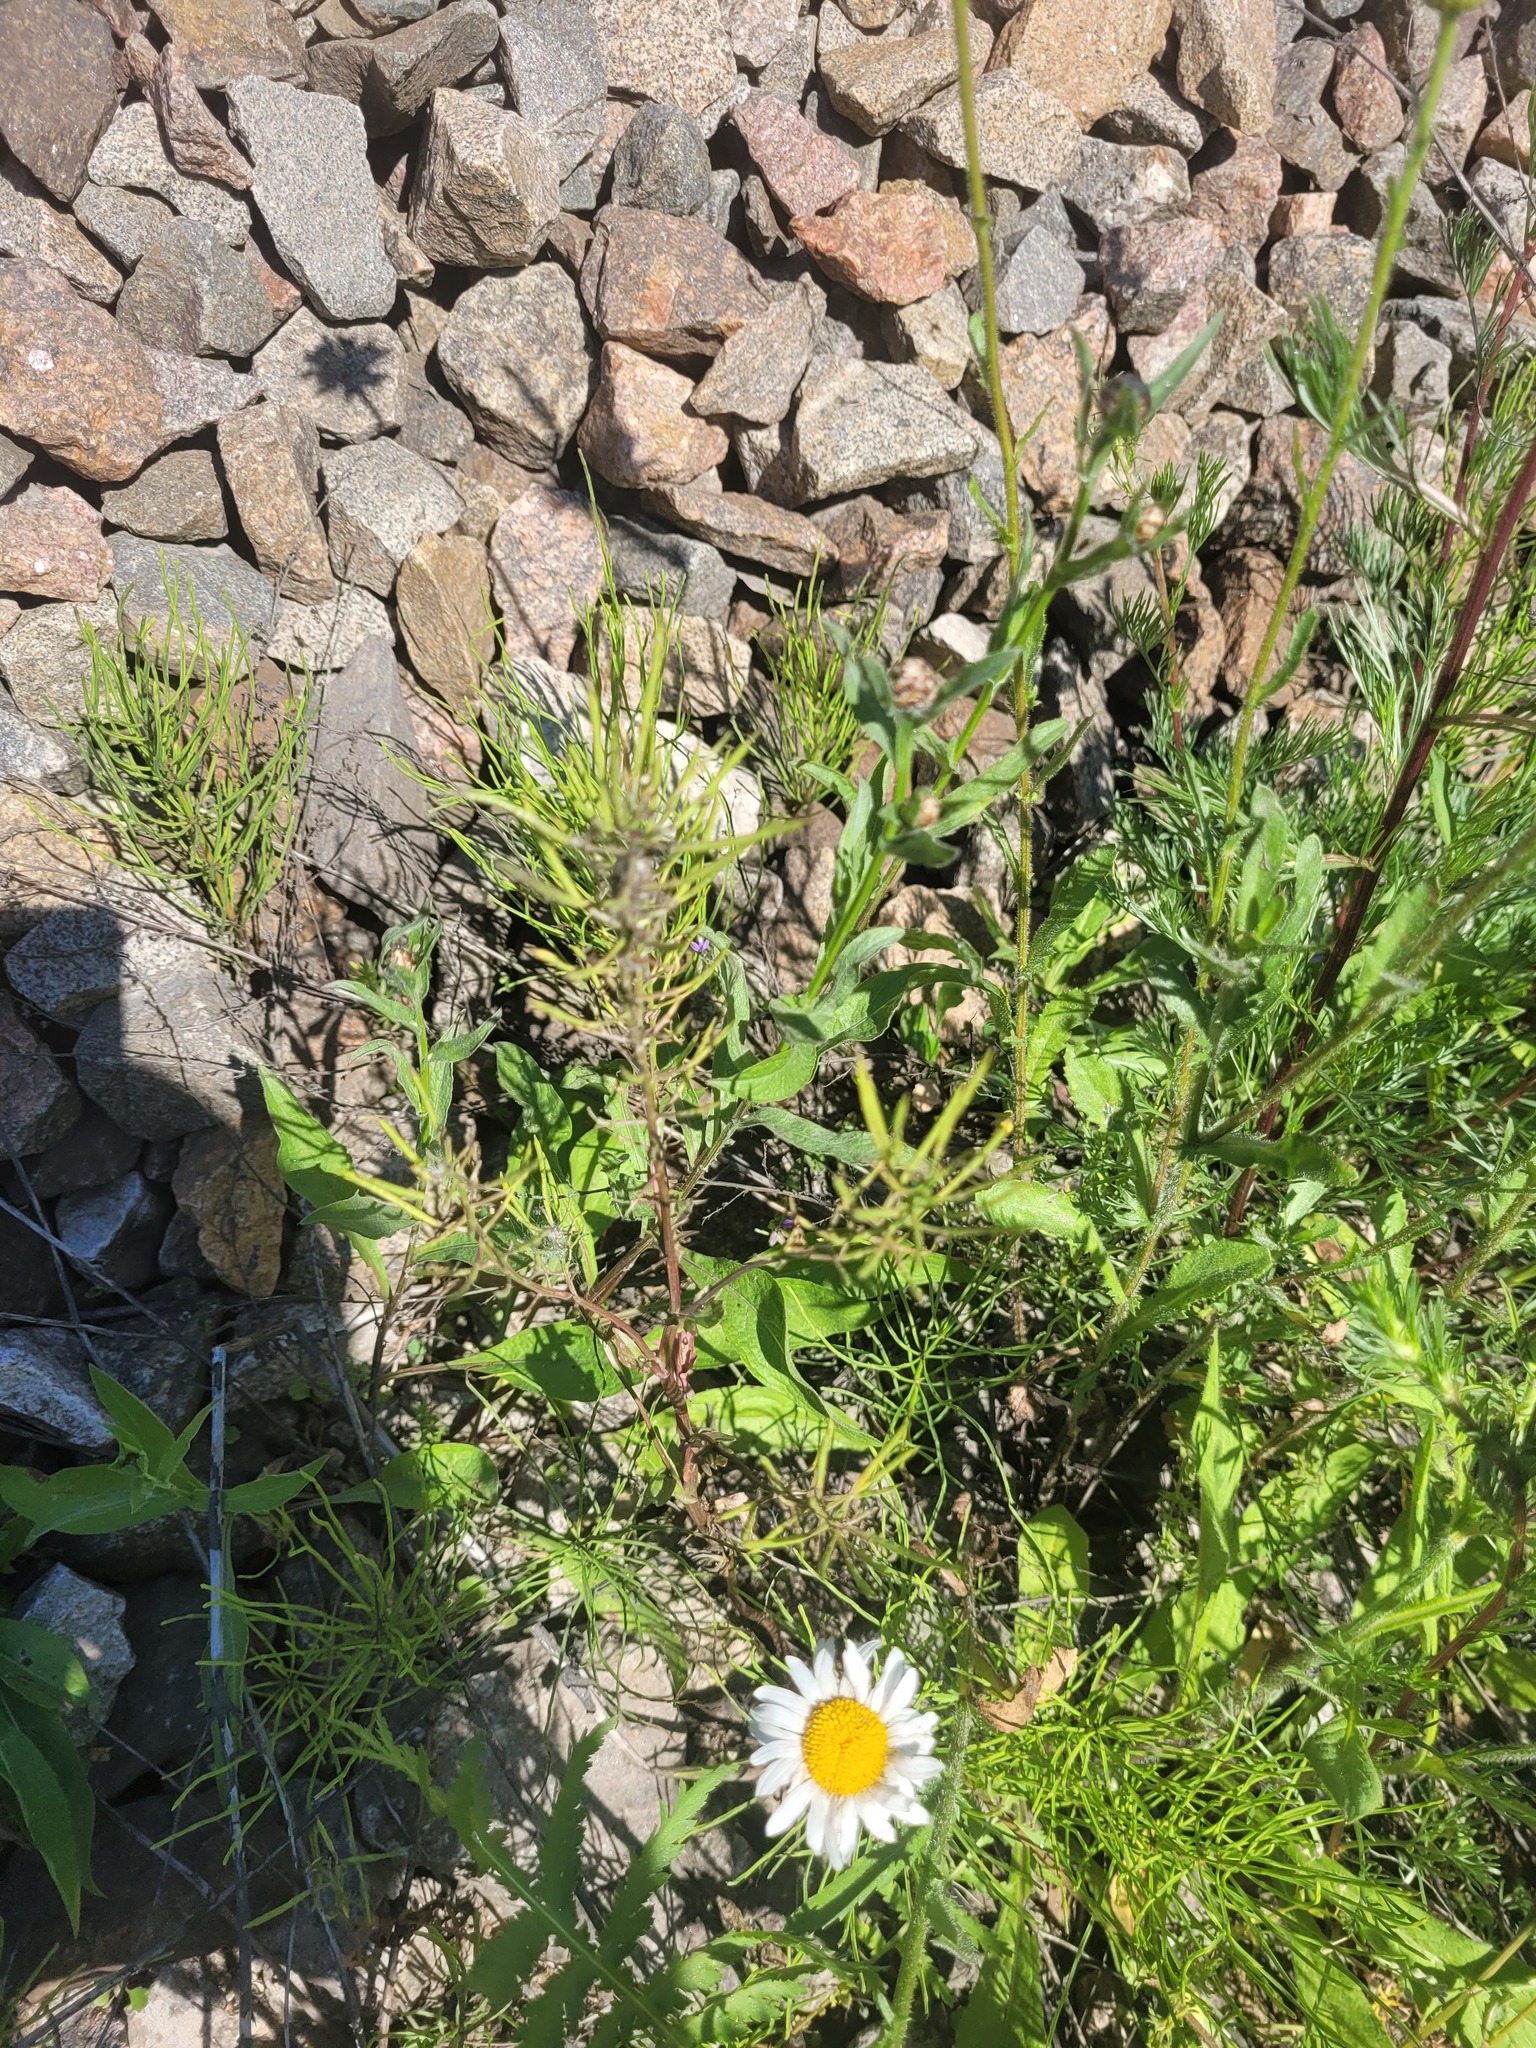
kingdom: Plantae
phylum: Tracheophyta
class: Magnoliopsida
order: Brassicales
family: Brassicaceae
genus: Barbarea
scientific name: Barbarea vulgaris
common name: Cressy-greens
